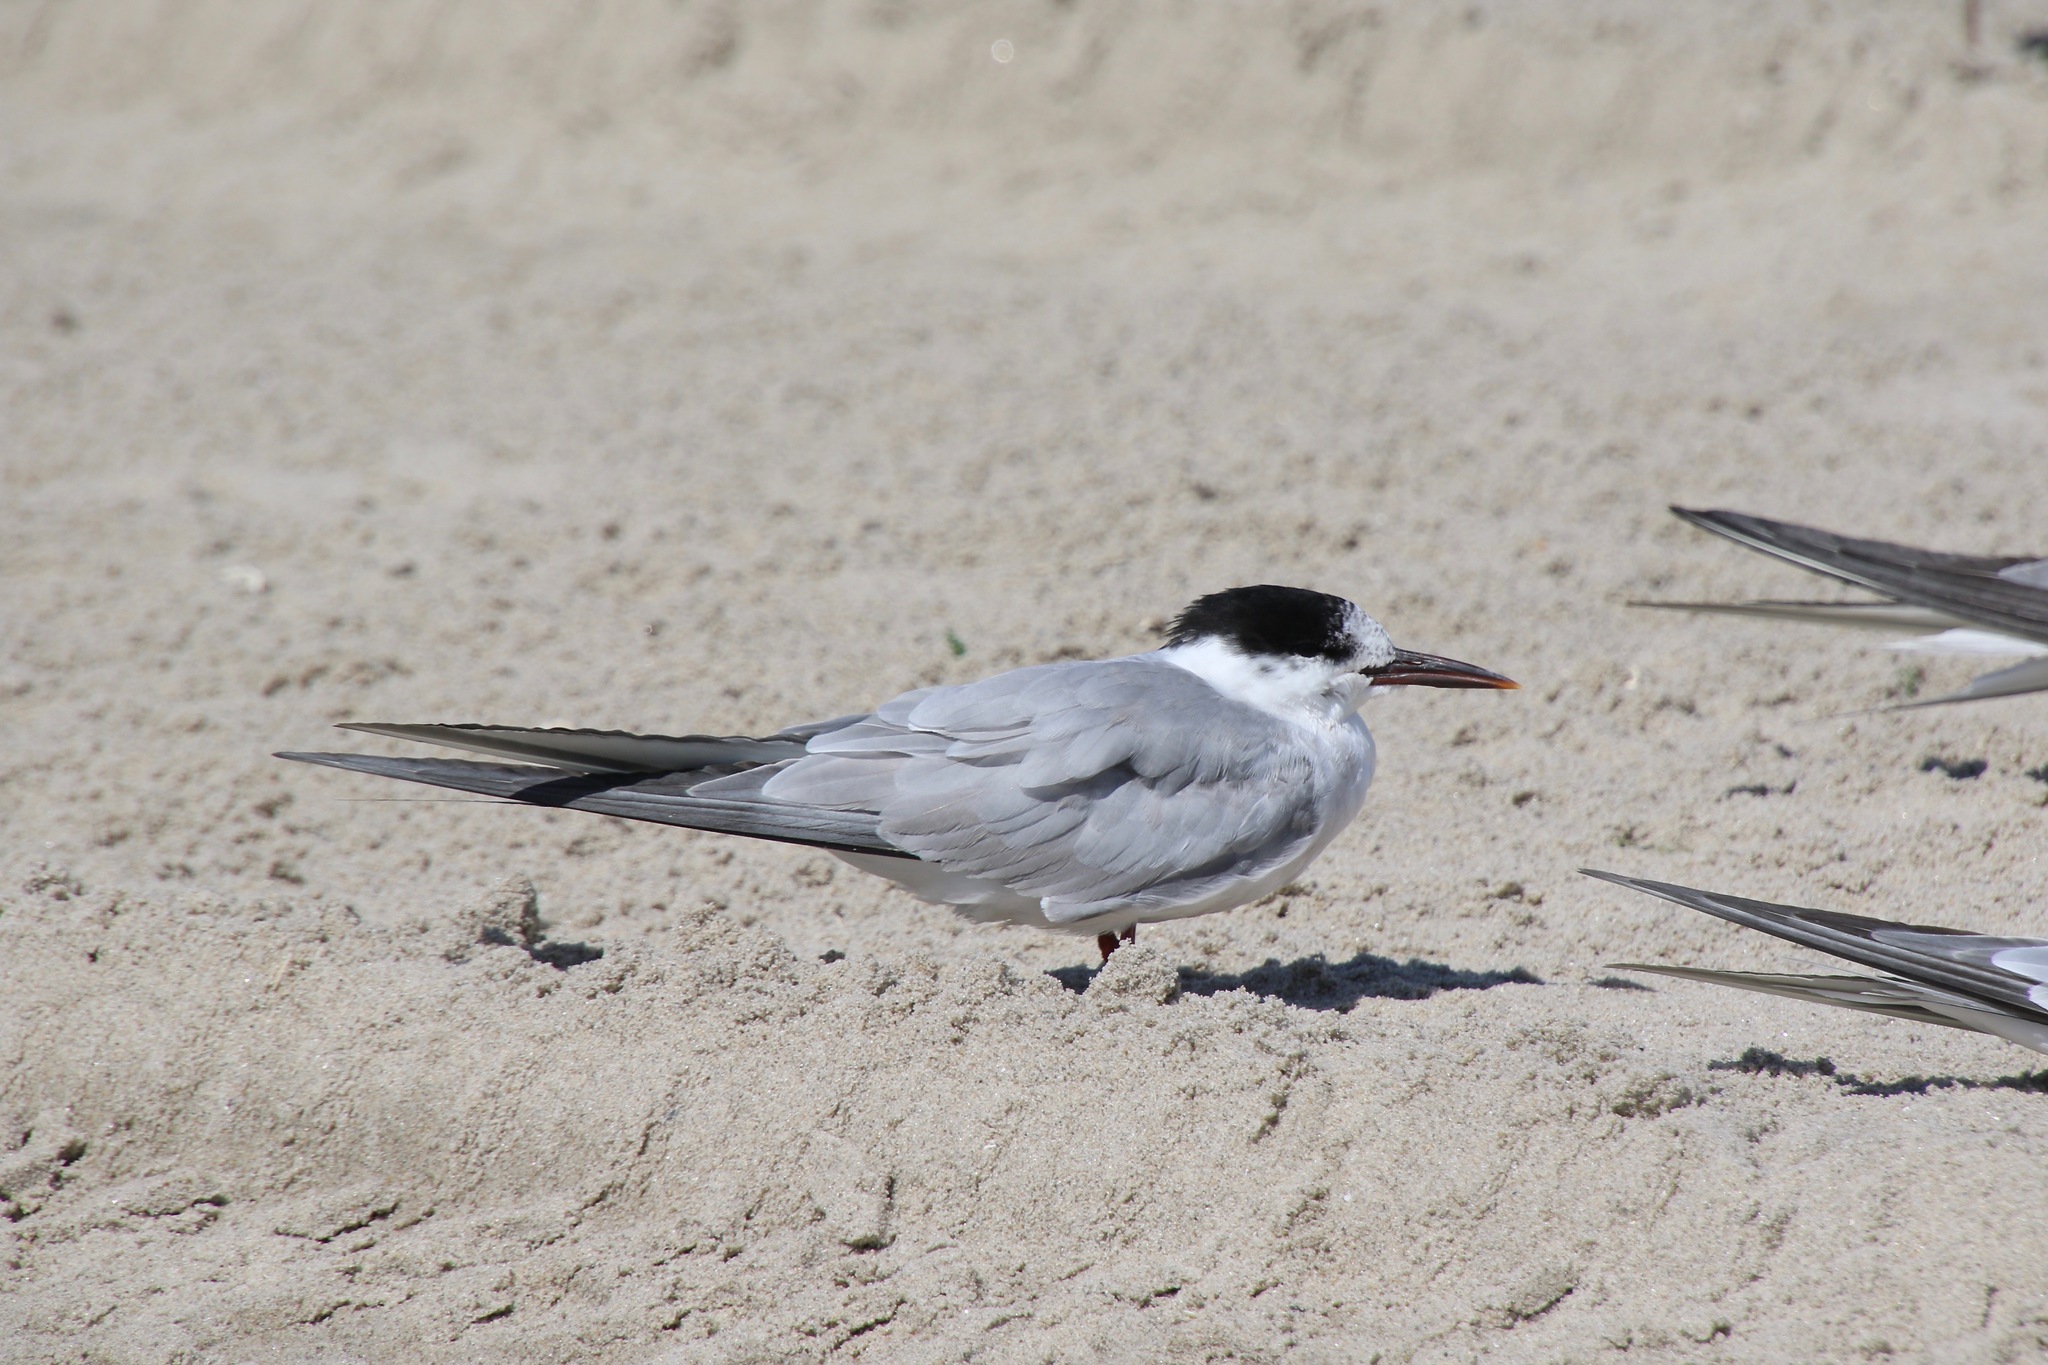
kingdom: Animalia
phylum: Chordata
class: Aves
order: Charadriiformes
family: Laridae
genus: Sterna
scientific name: Sterna hirundo
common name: Common tern
